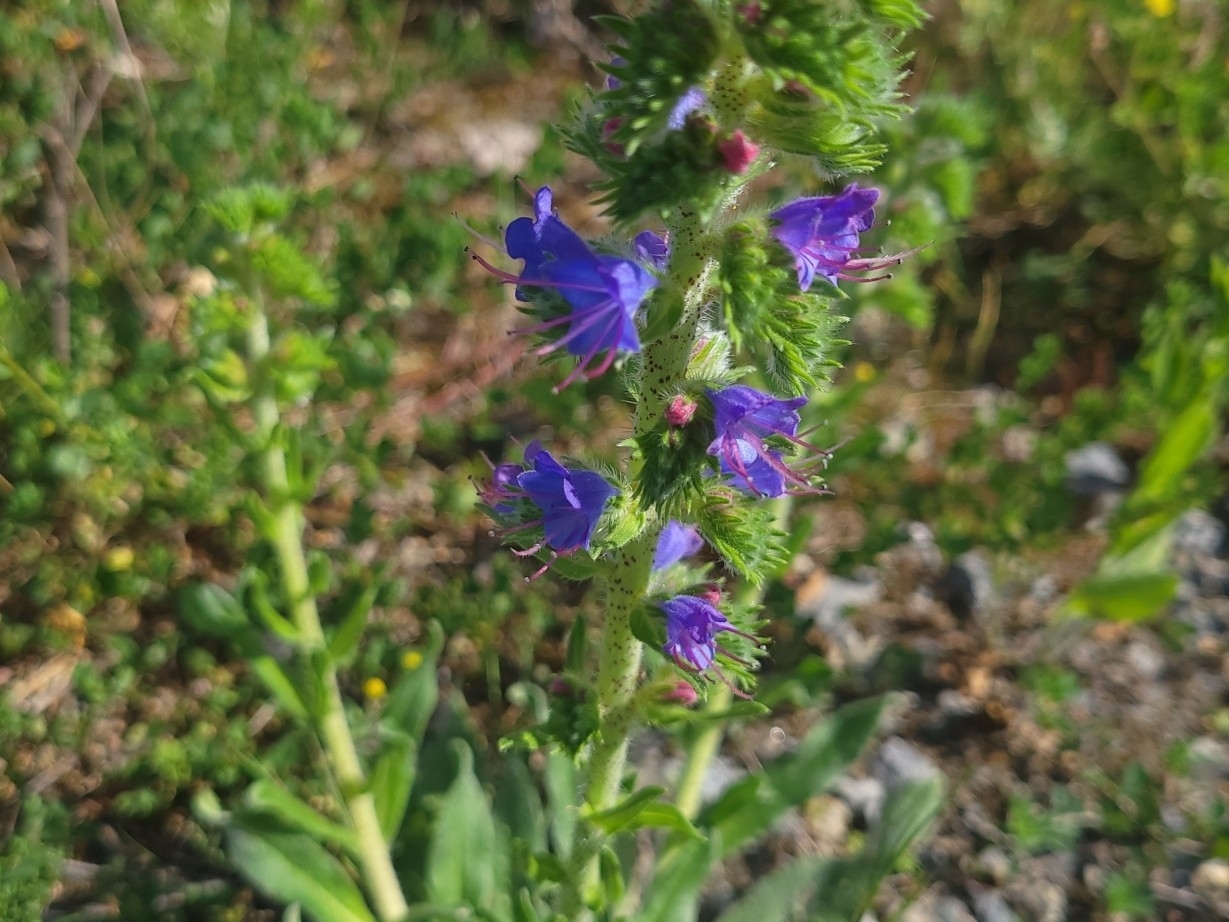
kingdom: Plantae
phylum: Tracheophyta
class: Magnoliopsida
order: Boraginales
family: Boraginaceae
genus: Echium
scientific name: Echium vulgare
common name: Common viper's bugloss
